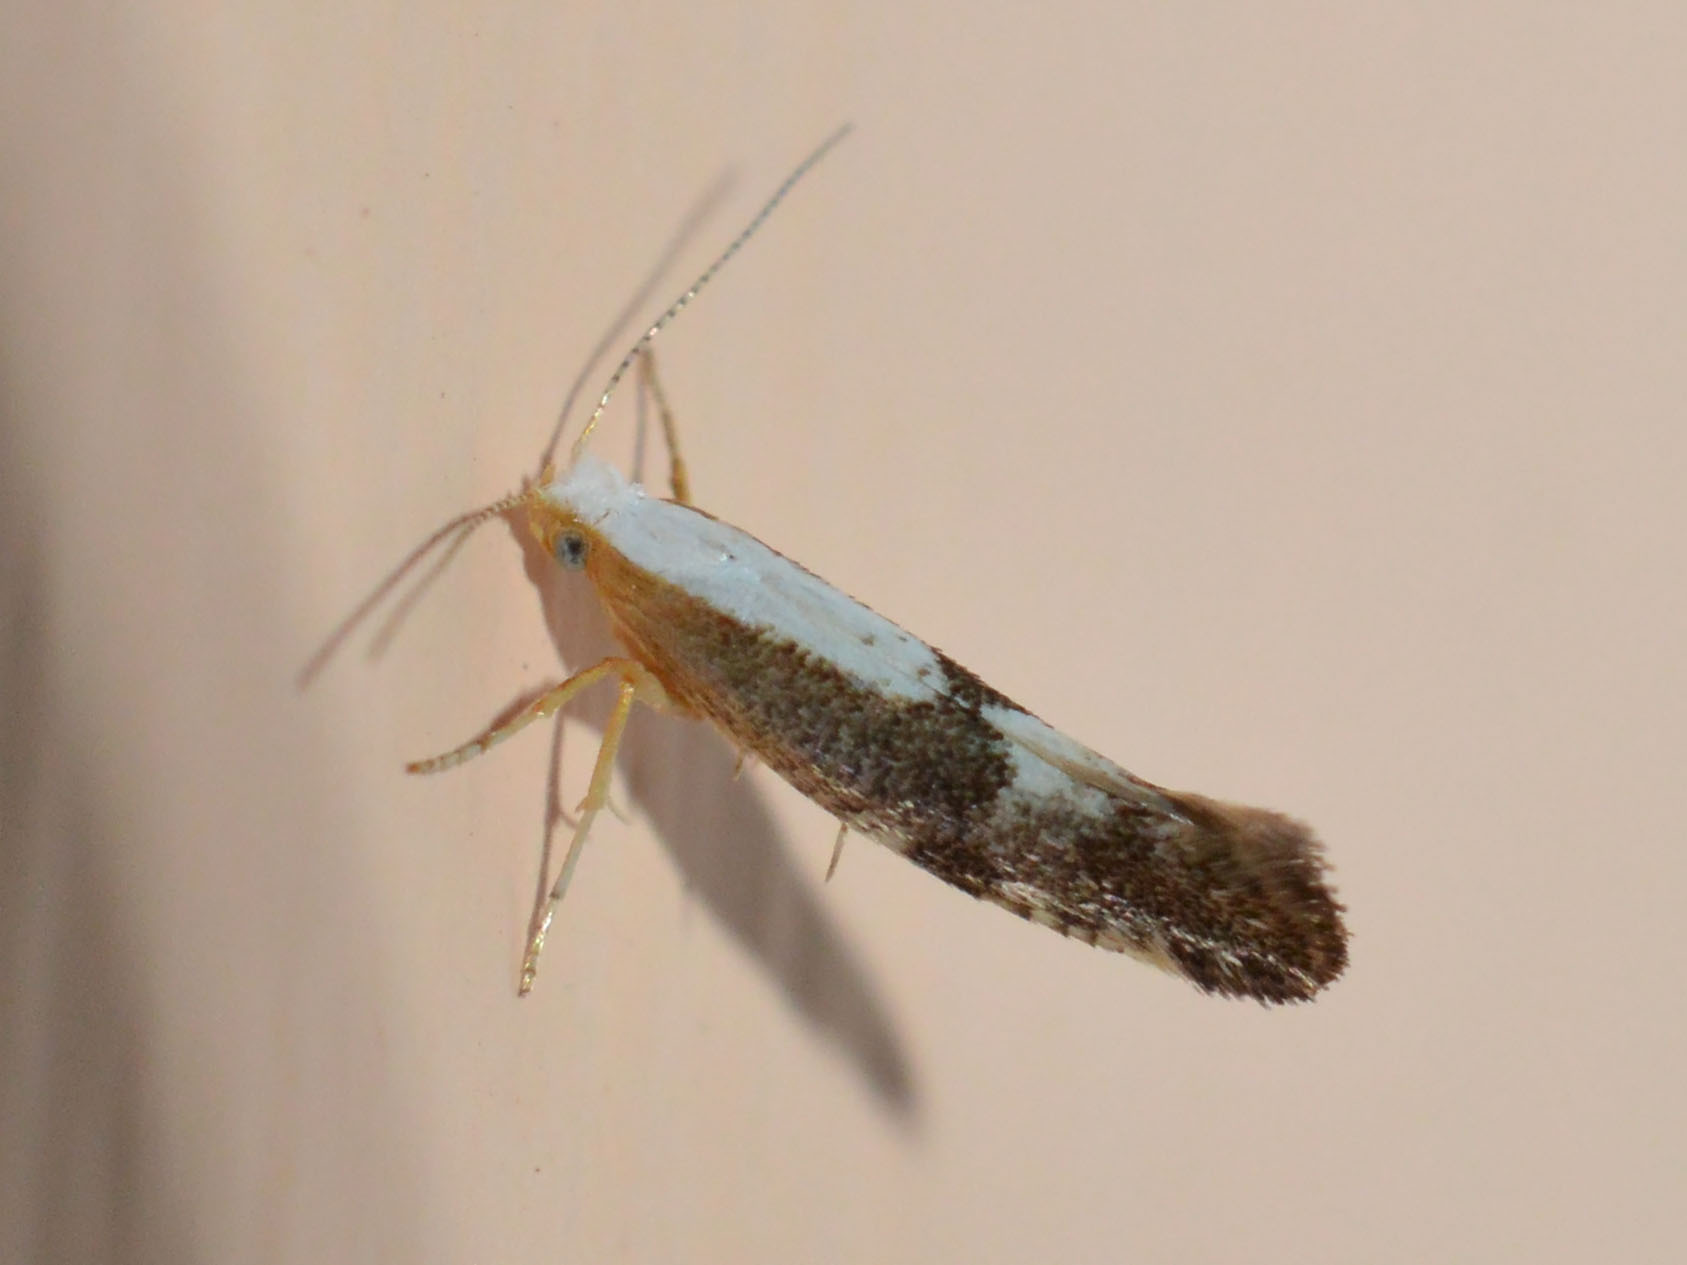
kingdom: Animalia
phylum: Arthropoda
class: Insecta
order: Lepidoptera
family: Argyresthiidae
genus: Argyresthia
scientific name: Argyresthia pruniella
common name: Cherry fruit moth
